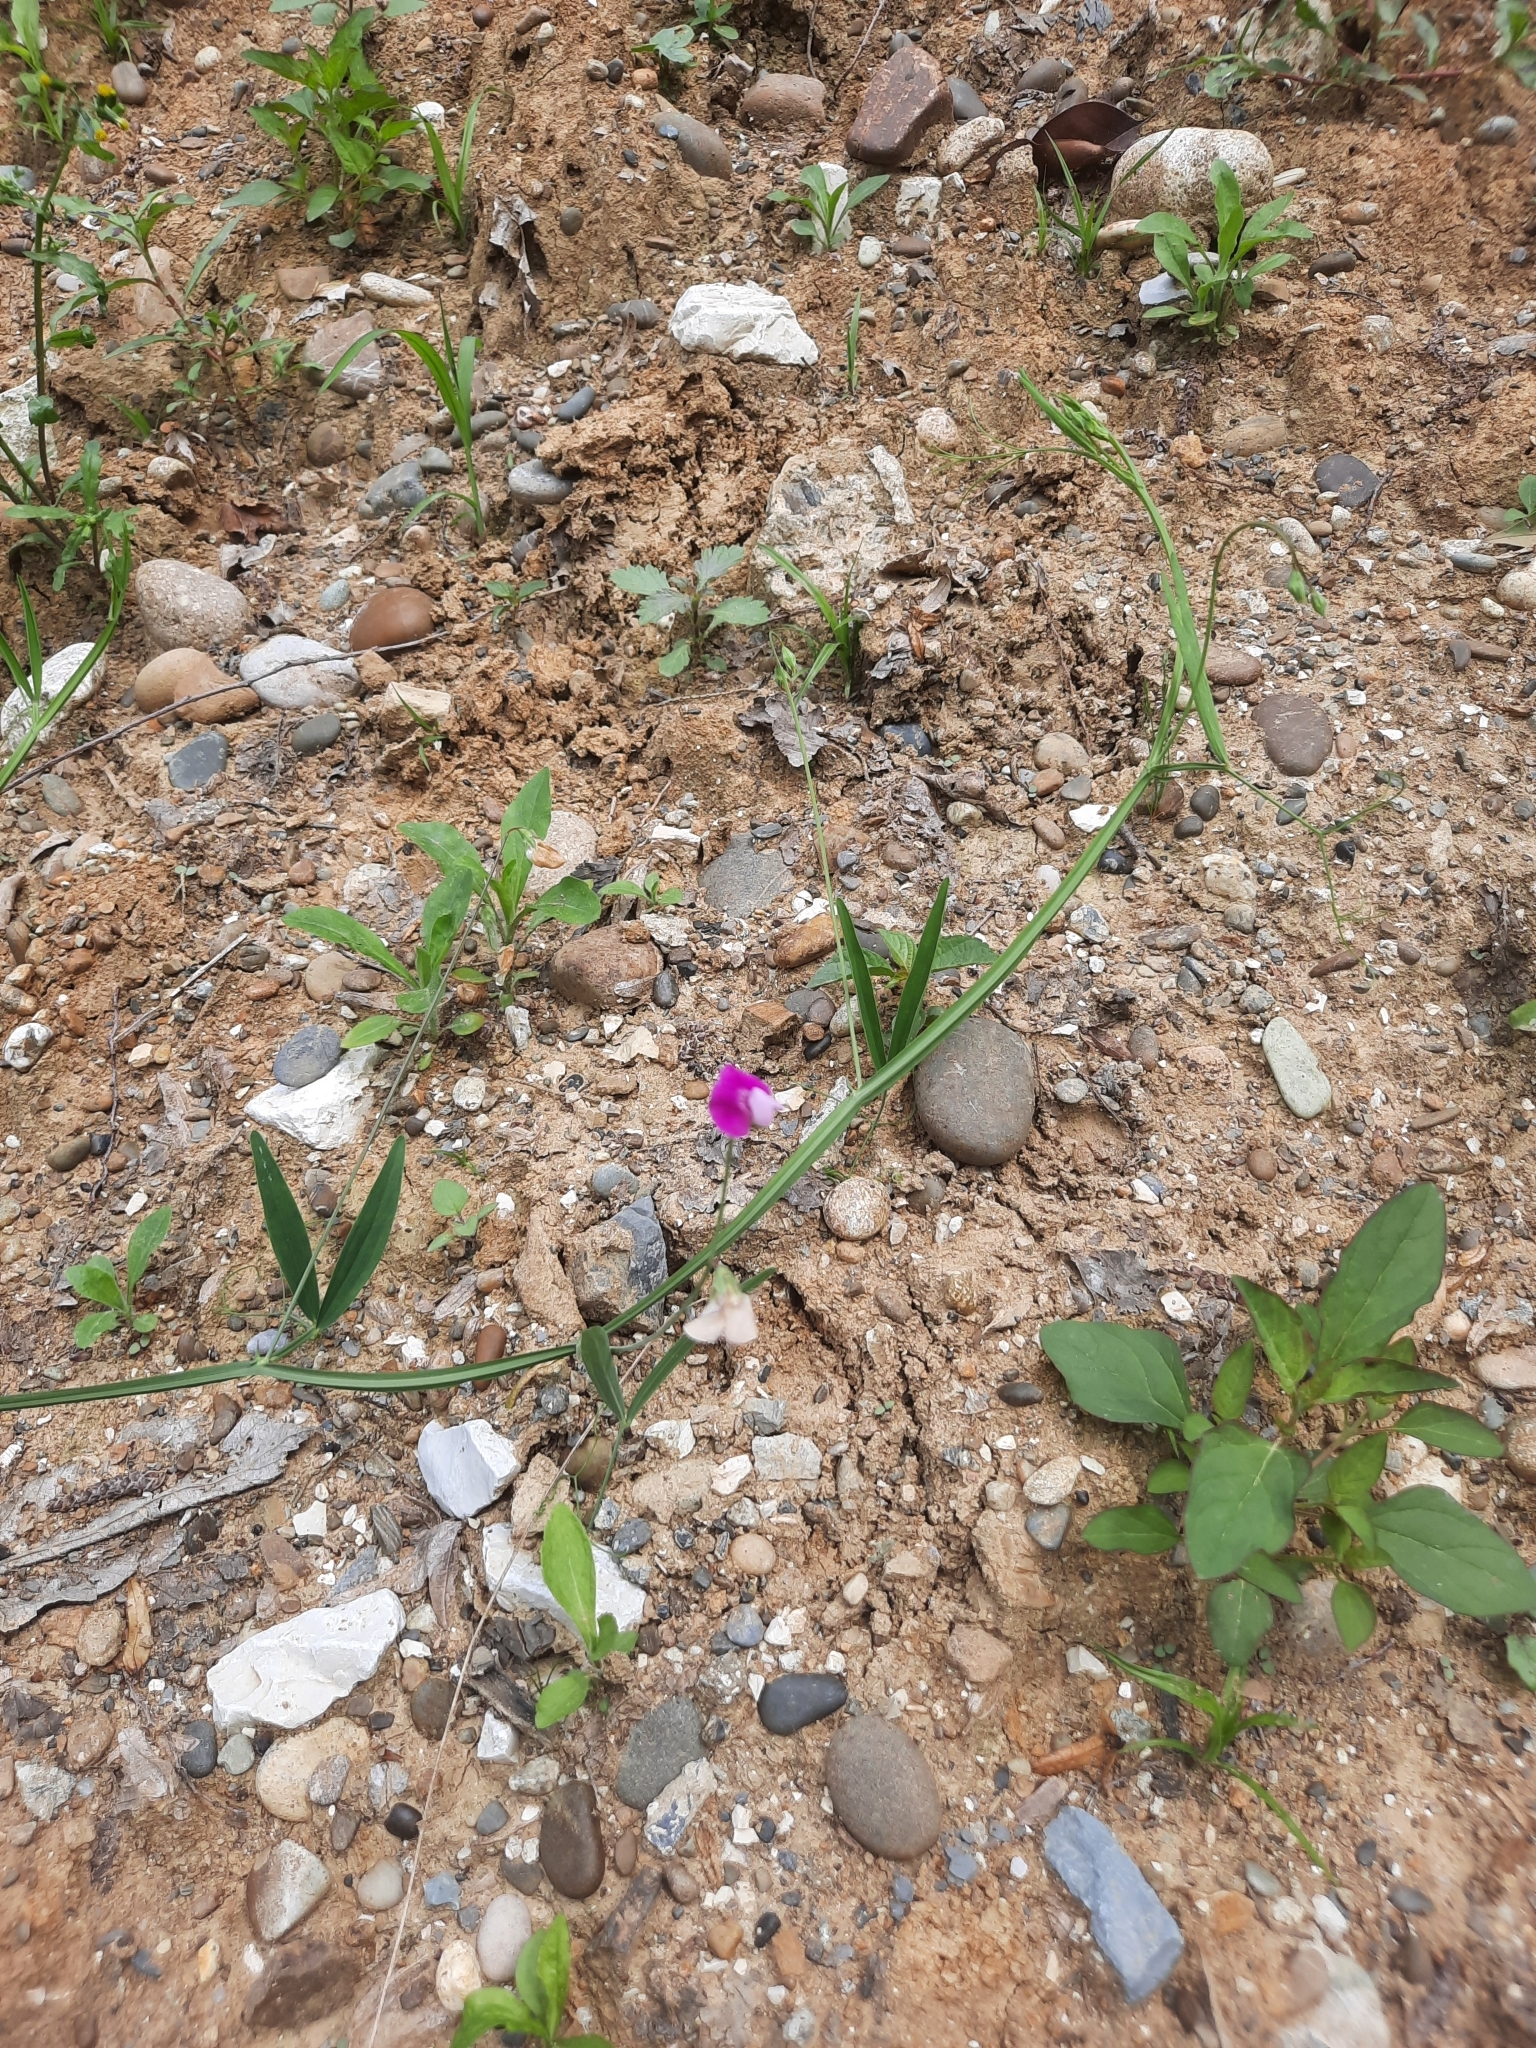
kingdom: Plantae
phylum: Tracheophyta
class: Magnoliopsida
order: Fabales
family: Fabaceae
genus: Lathyrus
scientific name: Lathyrus hirsutus
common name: Hairy vetchling
